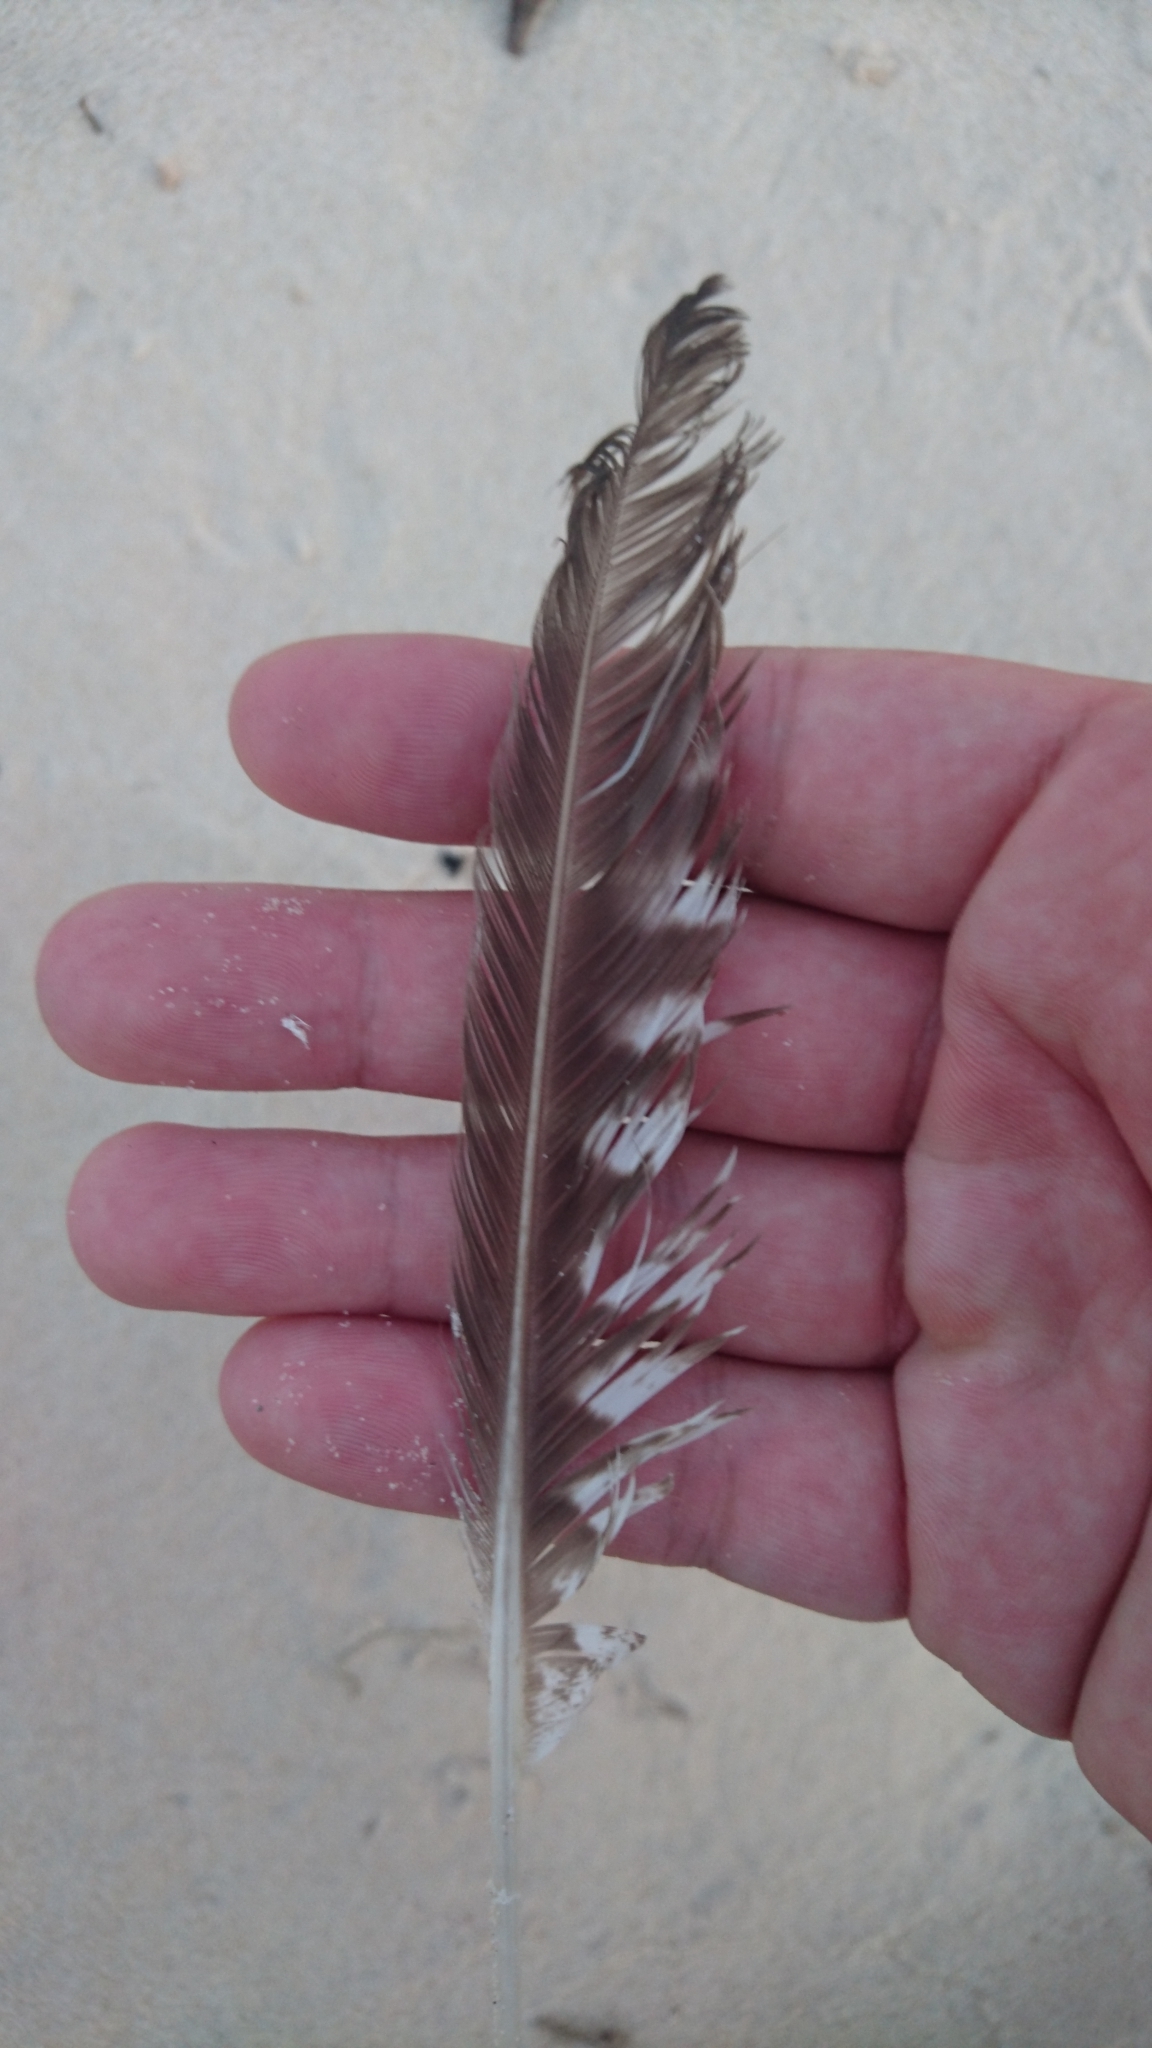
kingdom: Animalia
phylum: Chordata
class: Aves
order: Charadriiformes
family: Scolopacidae
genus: Numenius
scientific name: Numenius phaeopus
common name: Whimbrel
